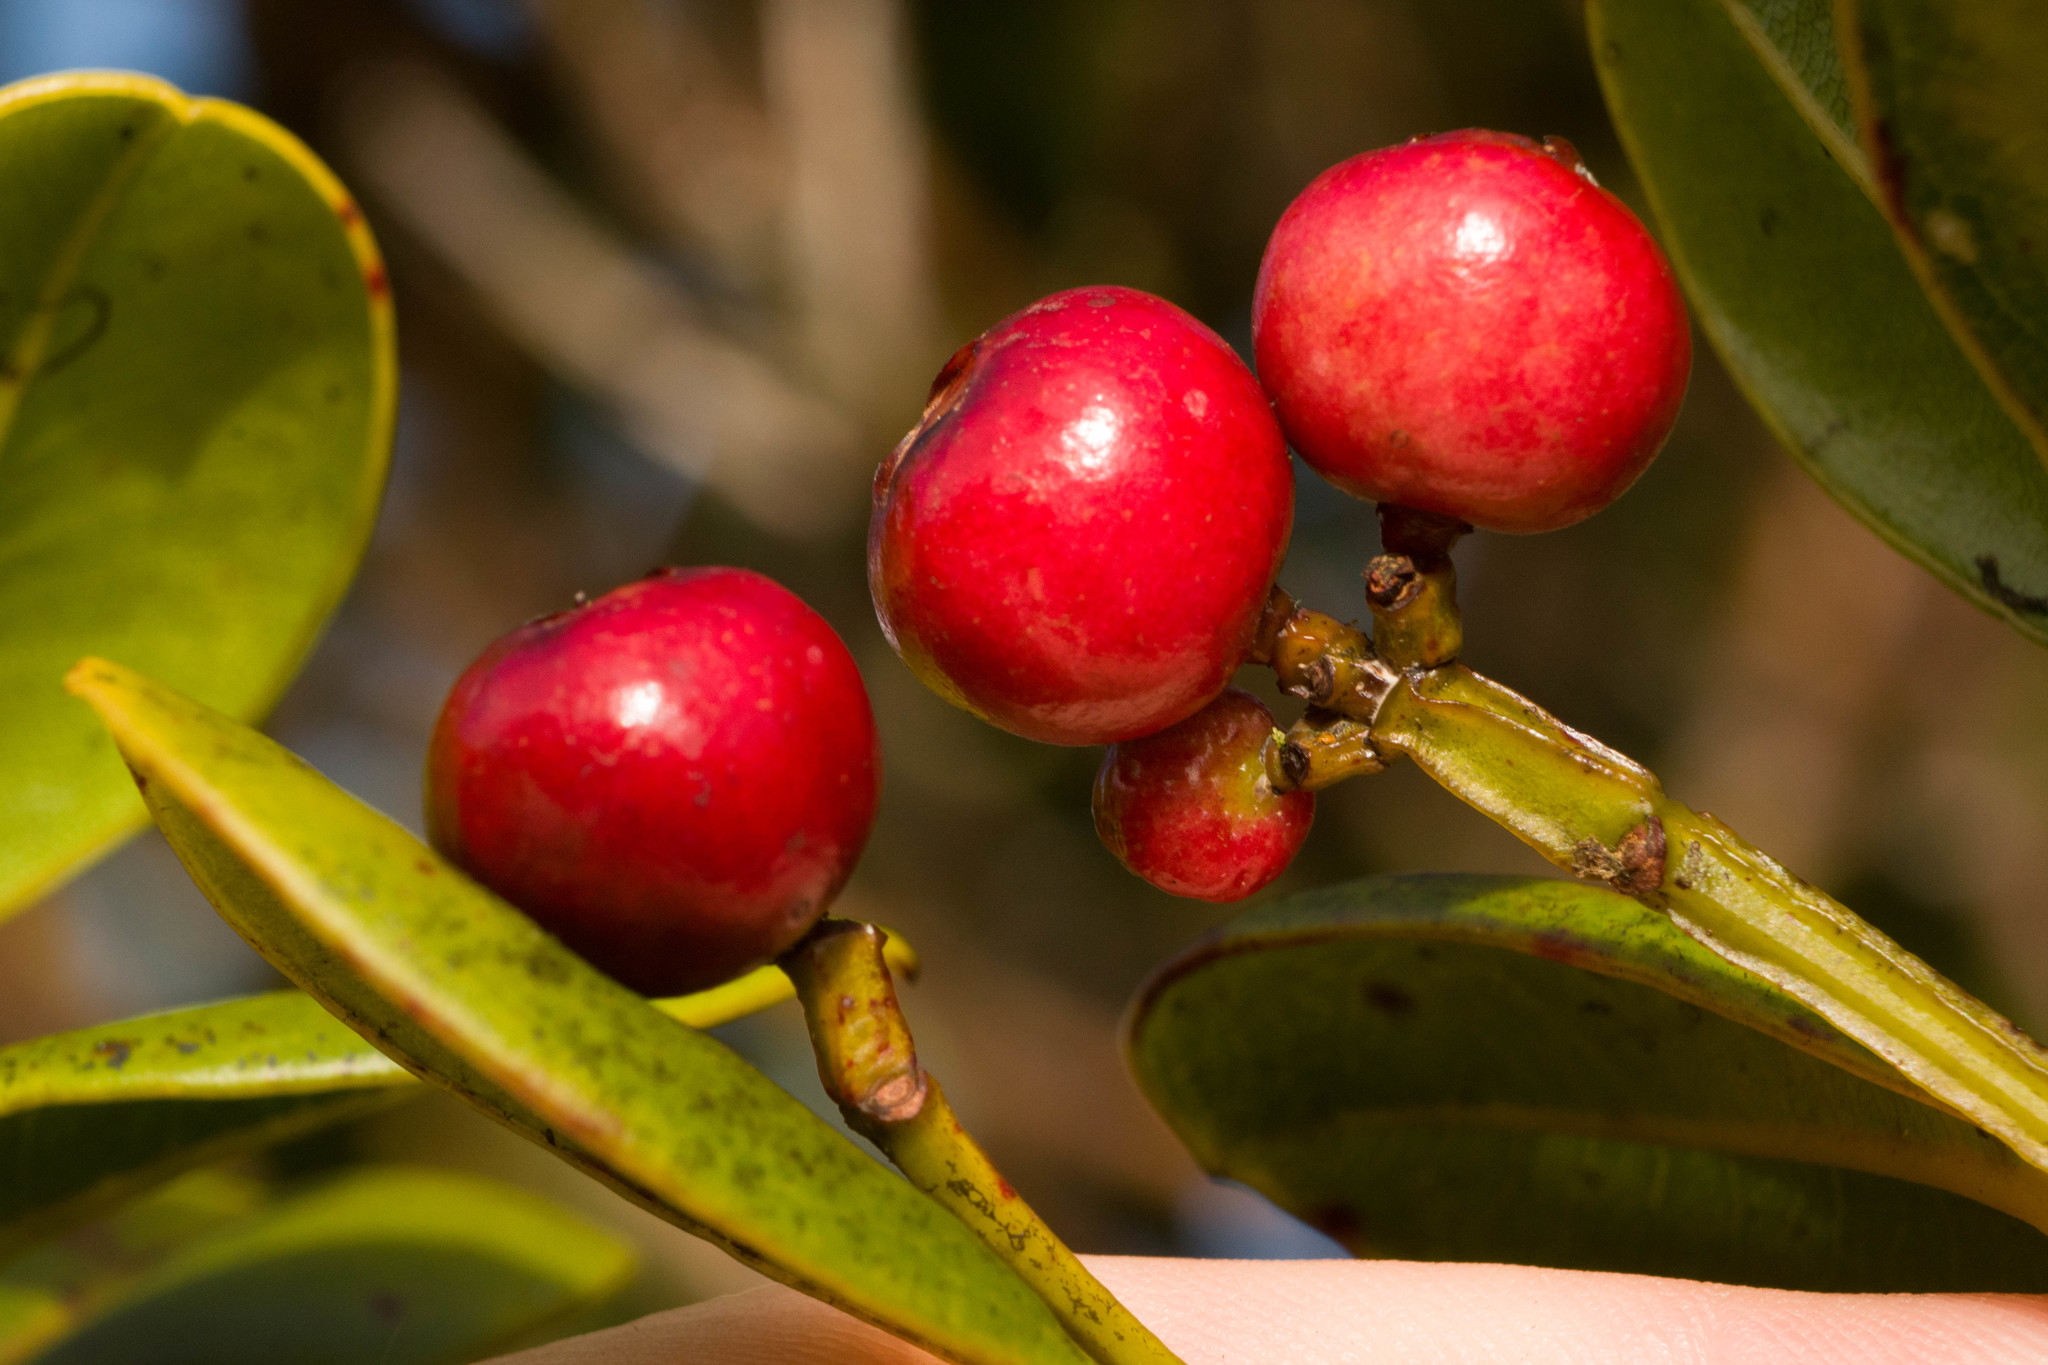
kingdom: Plantae
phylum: Tracheophyta
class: Magnoliopsida
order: Myrtales
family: Myrtaceae
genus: Syzygium
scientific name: Syzygium sandwicense
